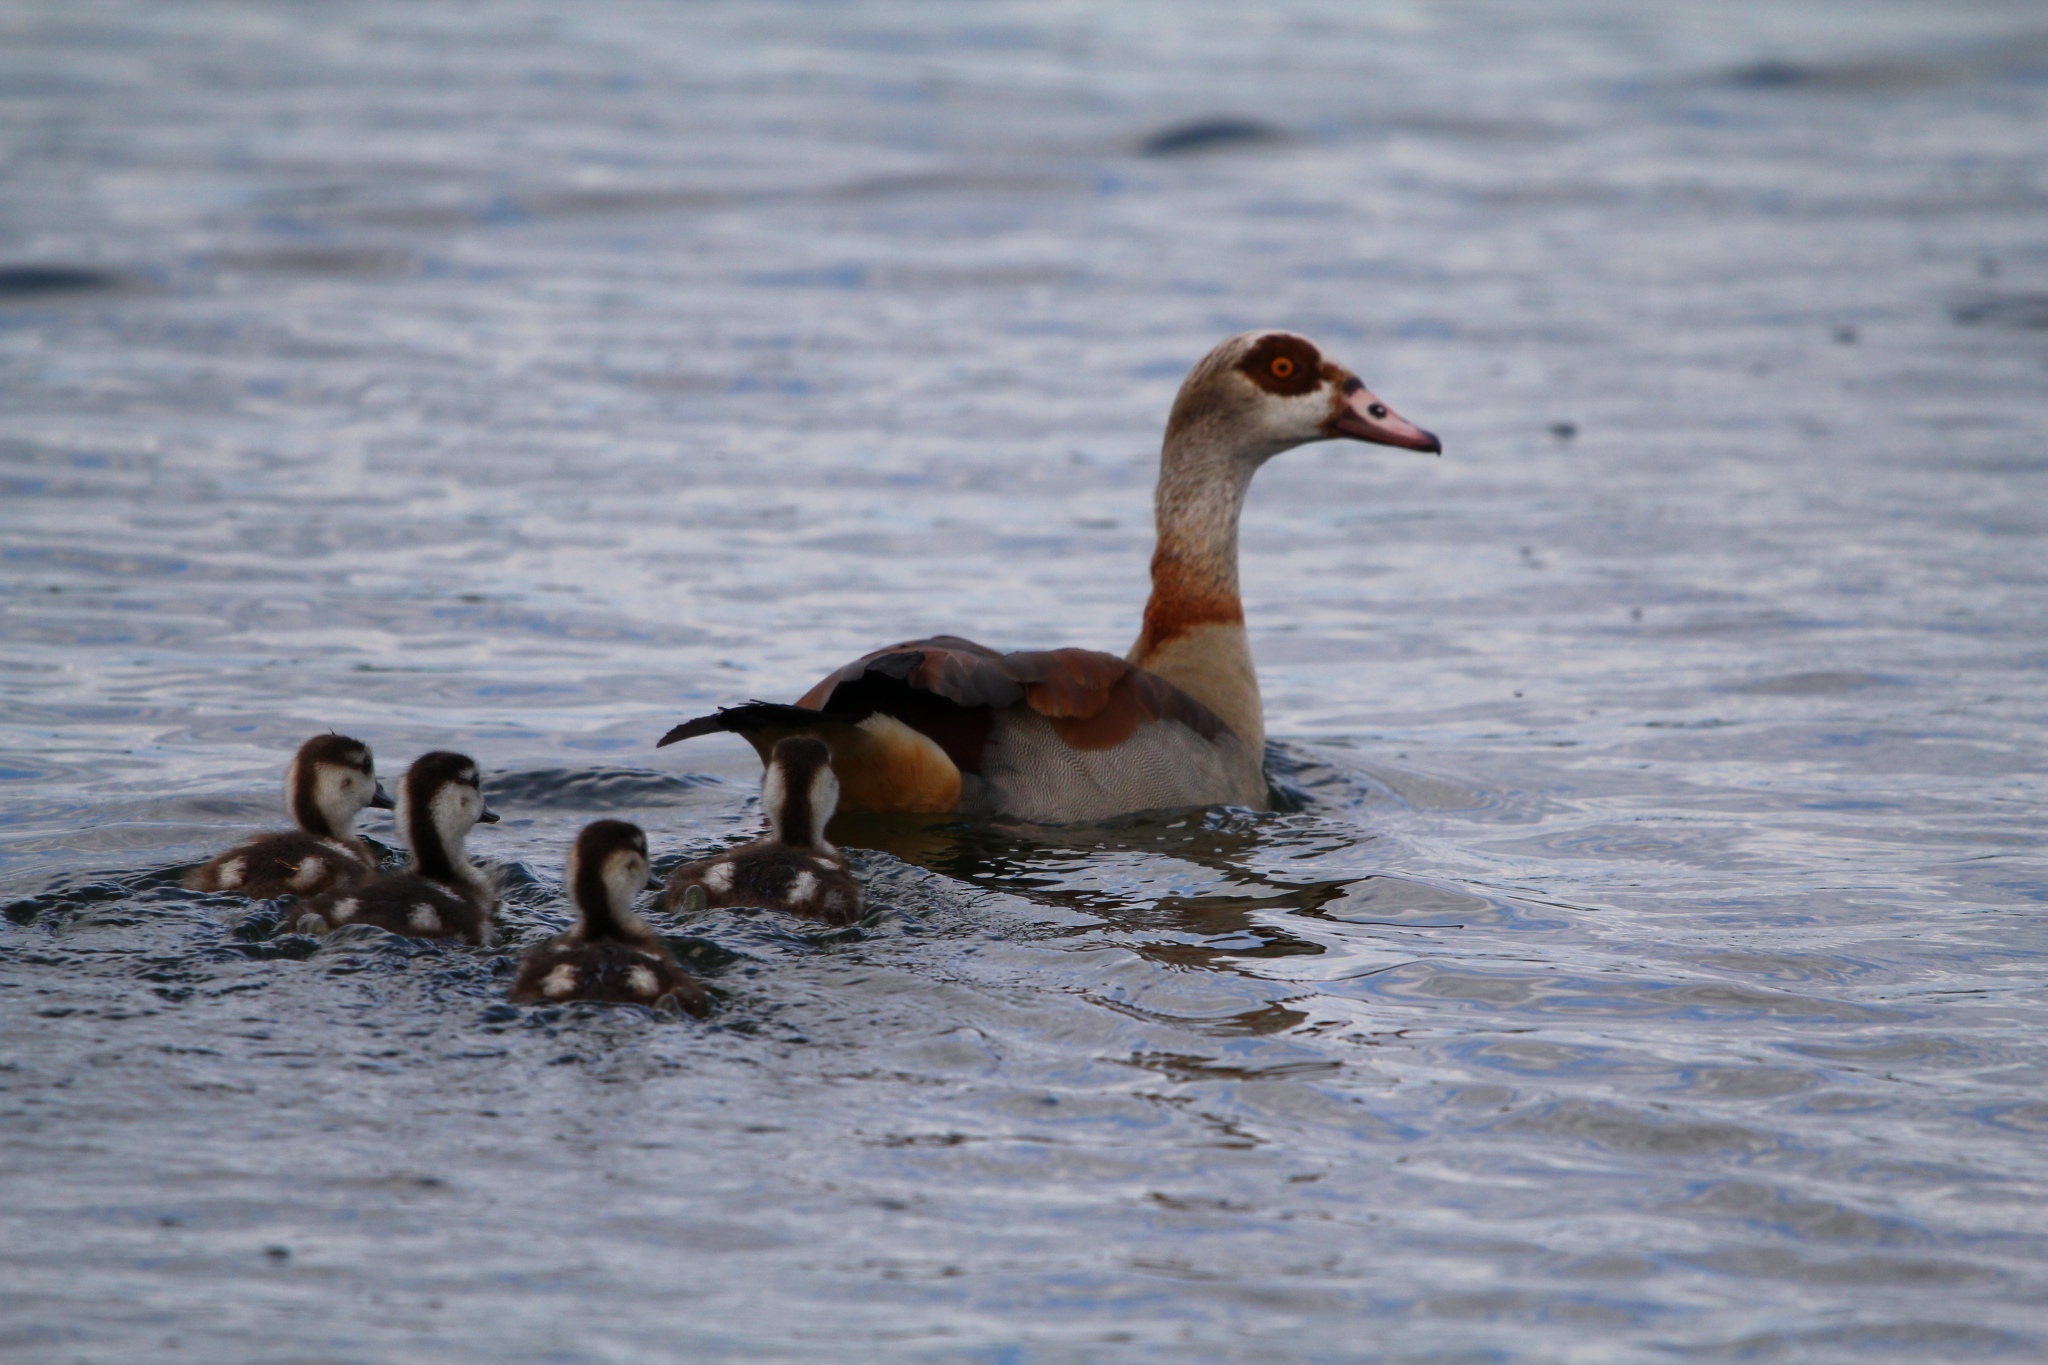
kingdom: Animalia
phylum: Chordata
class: Aves
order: Anseriformes
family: Anatidae
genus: Alopochen
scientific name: Alopochen aegyptiaca
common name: Egyptian goose
